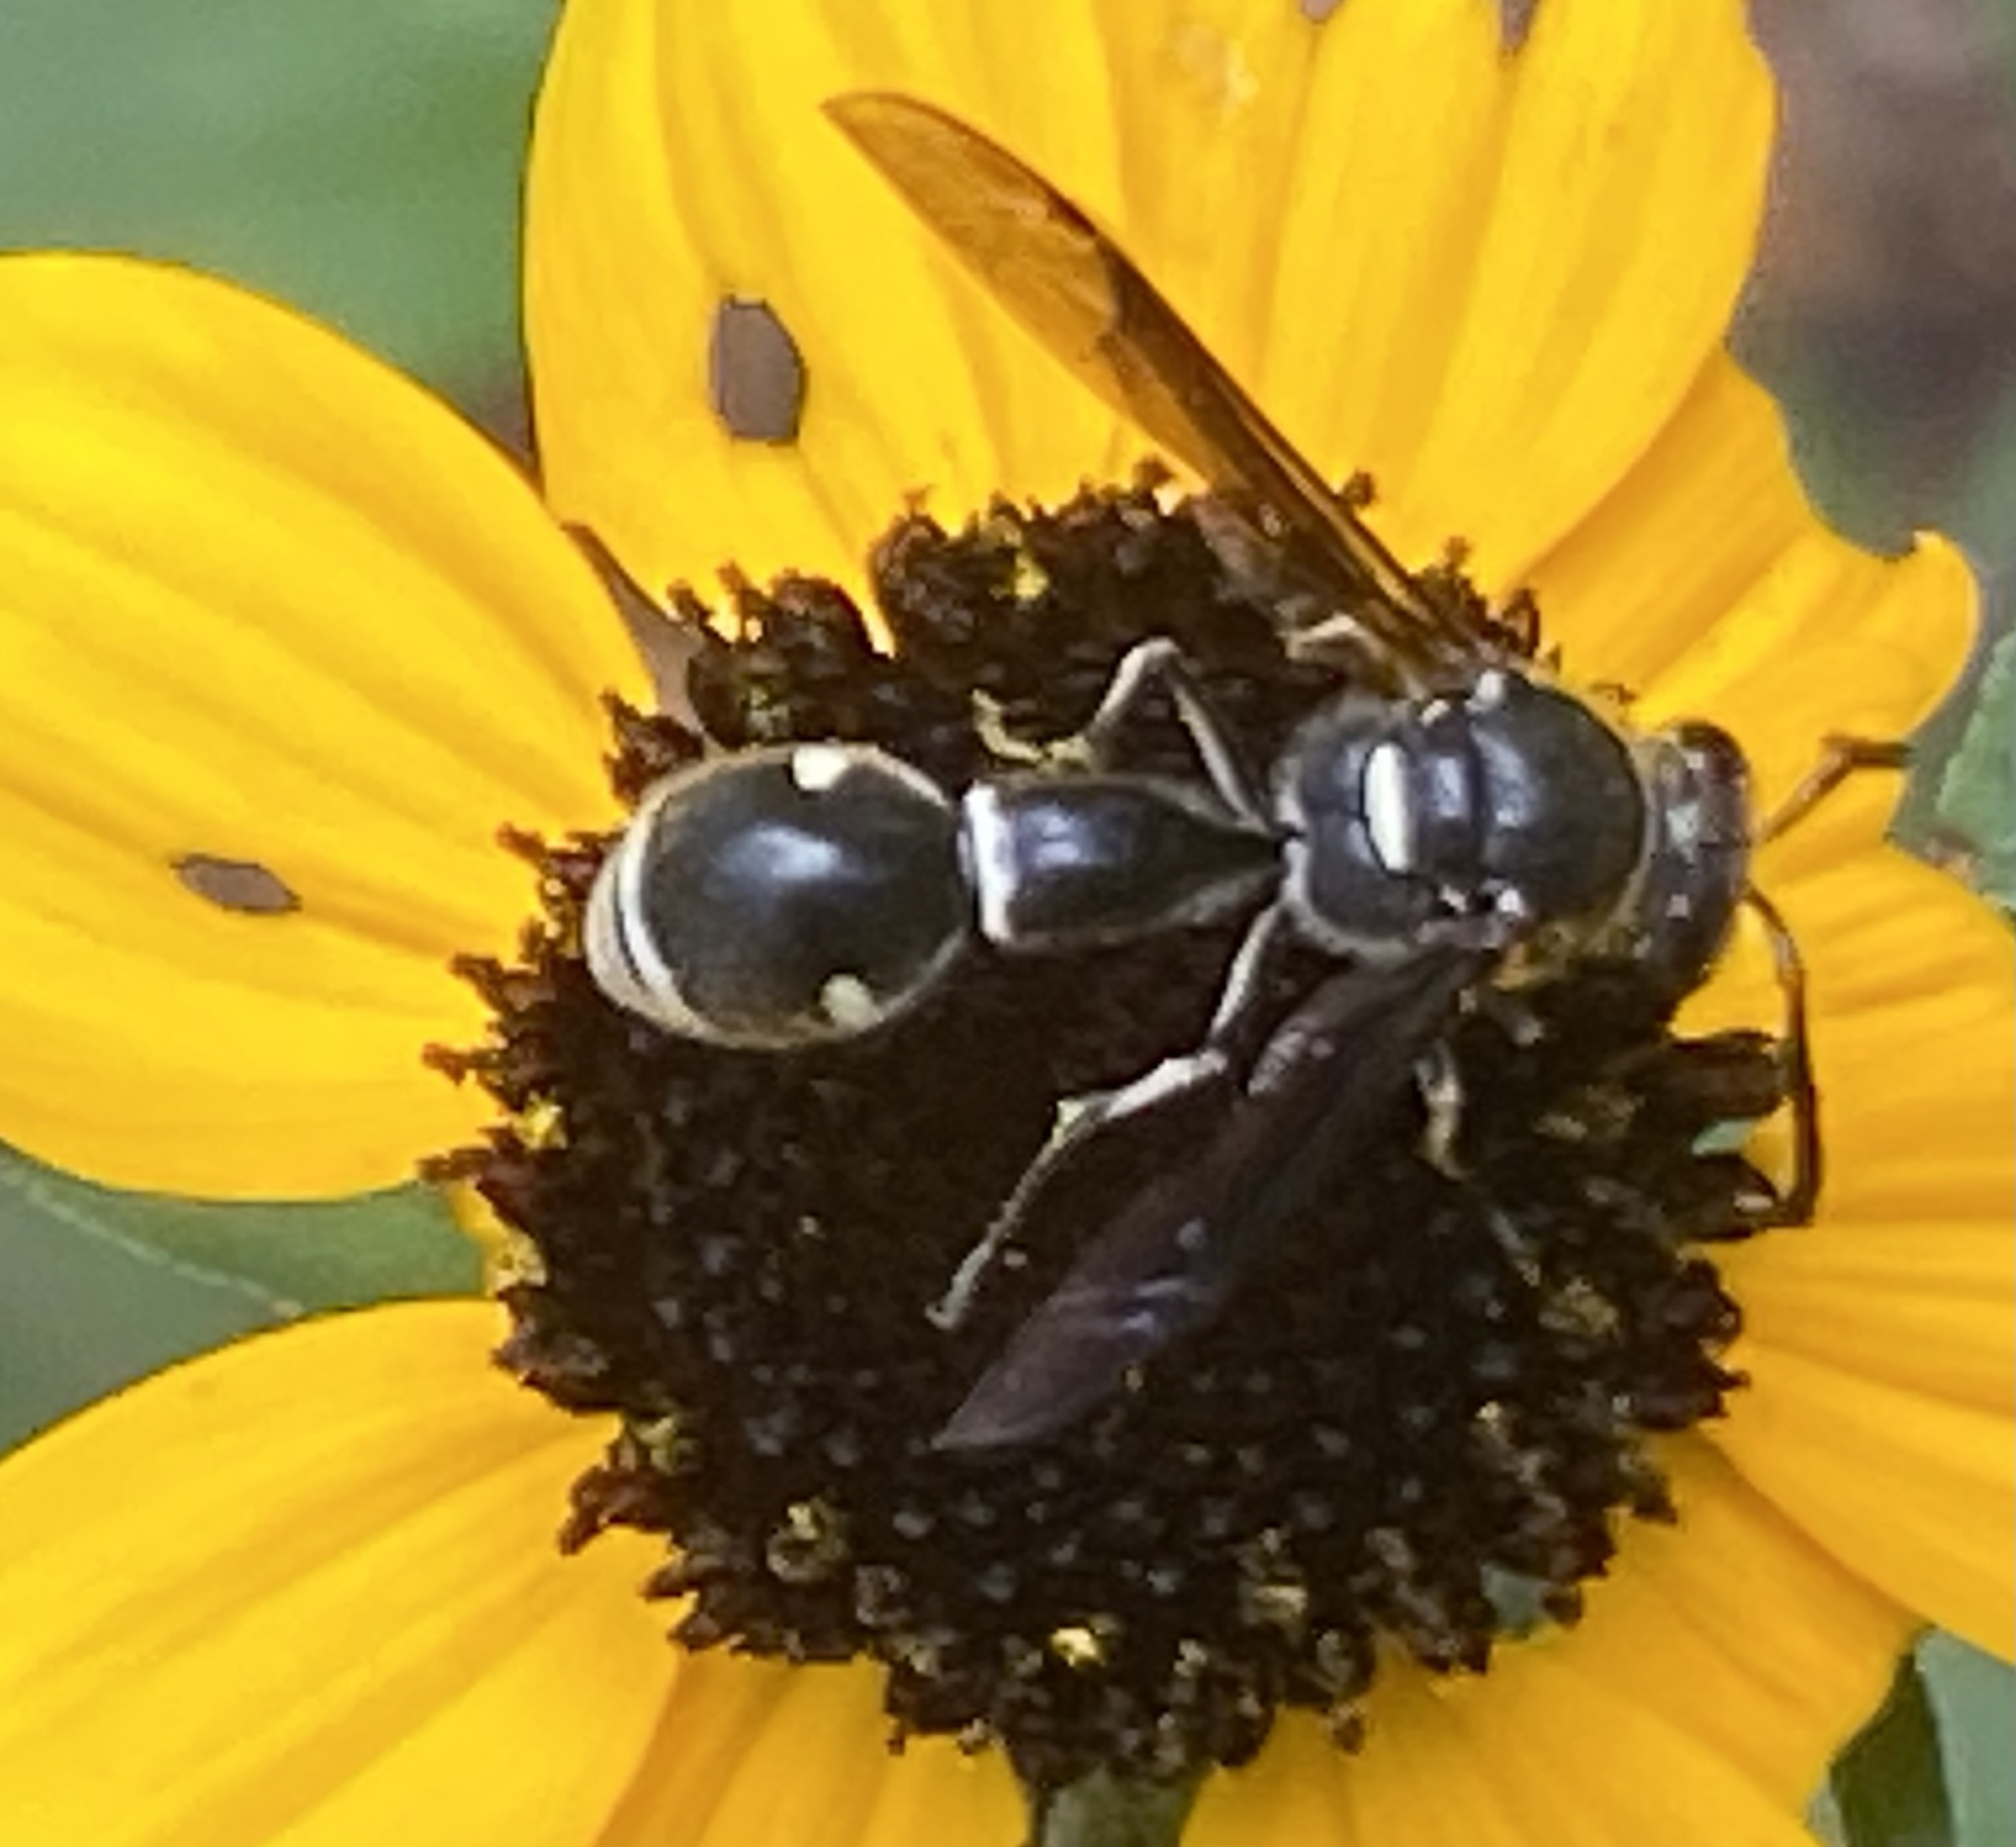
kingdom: Animalia
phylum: Arthropoda
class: Insecta
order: Hymenoptera
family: Vespidae
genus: Eumenes
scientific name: Eumenes fraternus
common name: Fraternal potter wasp
